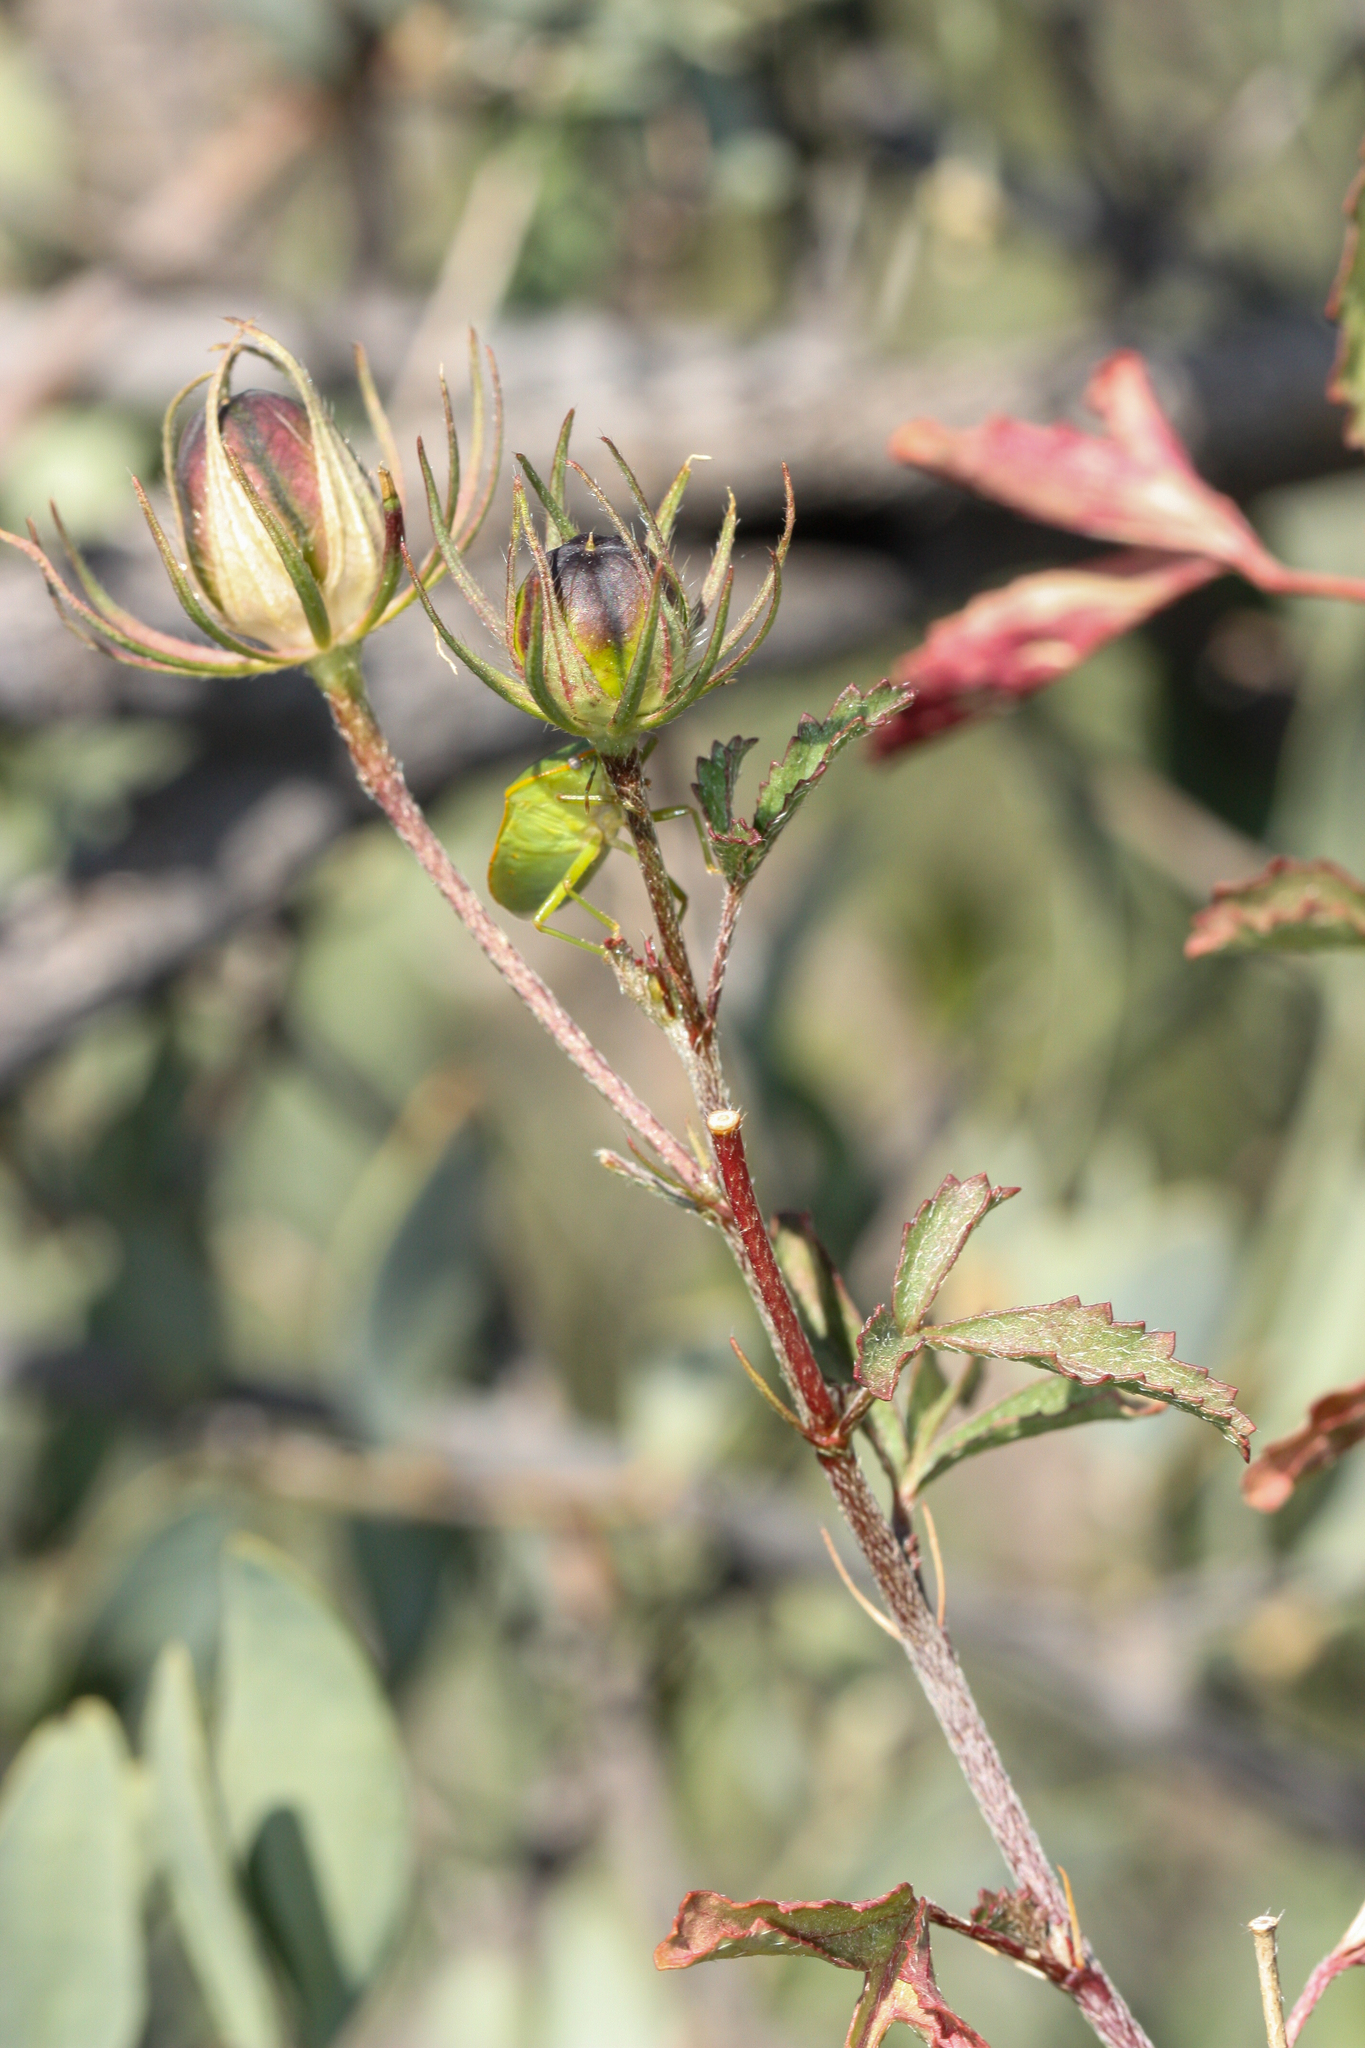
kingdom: Plantae
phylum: Tracheophyta
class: Magnoliopsida
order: Malvales
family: Malvaceae
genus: Hibiscus
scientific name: Hibiscus coulteri
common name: Desert rose-mallow
